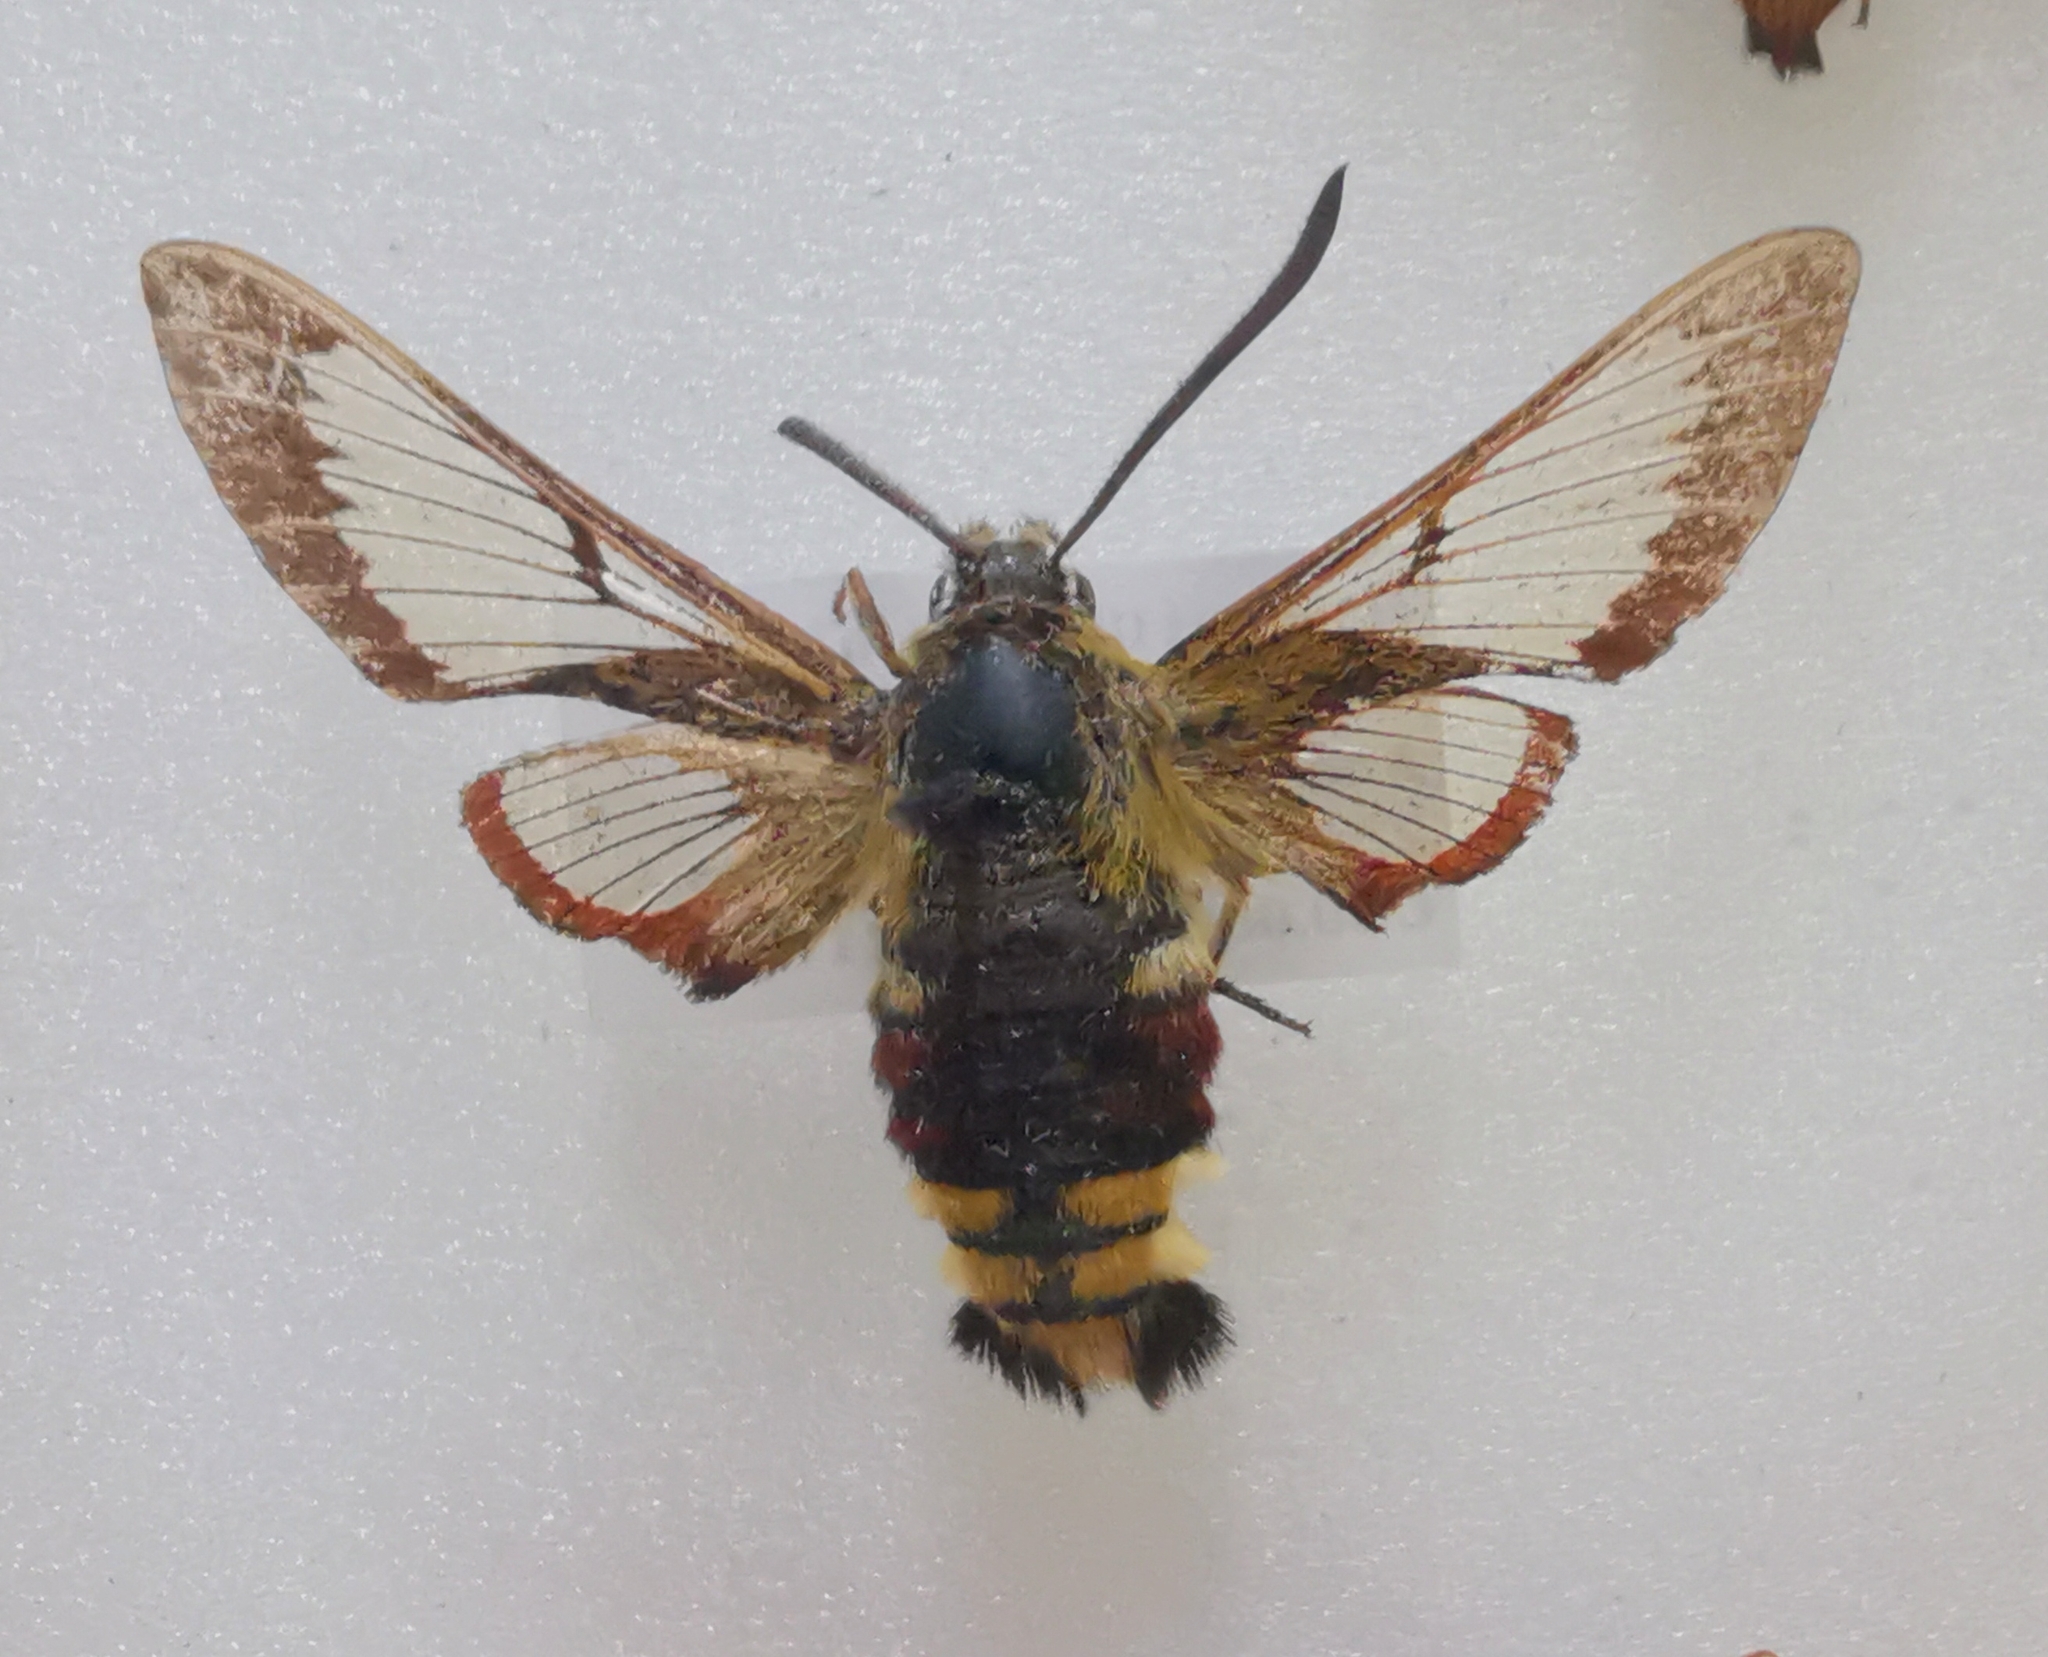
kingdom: Animalia
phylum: Arthropoda
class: Insecta
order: Lepidoptera
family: Sphingidae
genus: Hemaris
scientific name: Hemaris fuciformis
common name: Broad-bordered bee hawk-moth
